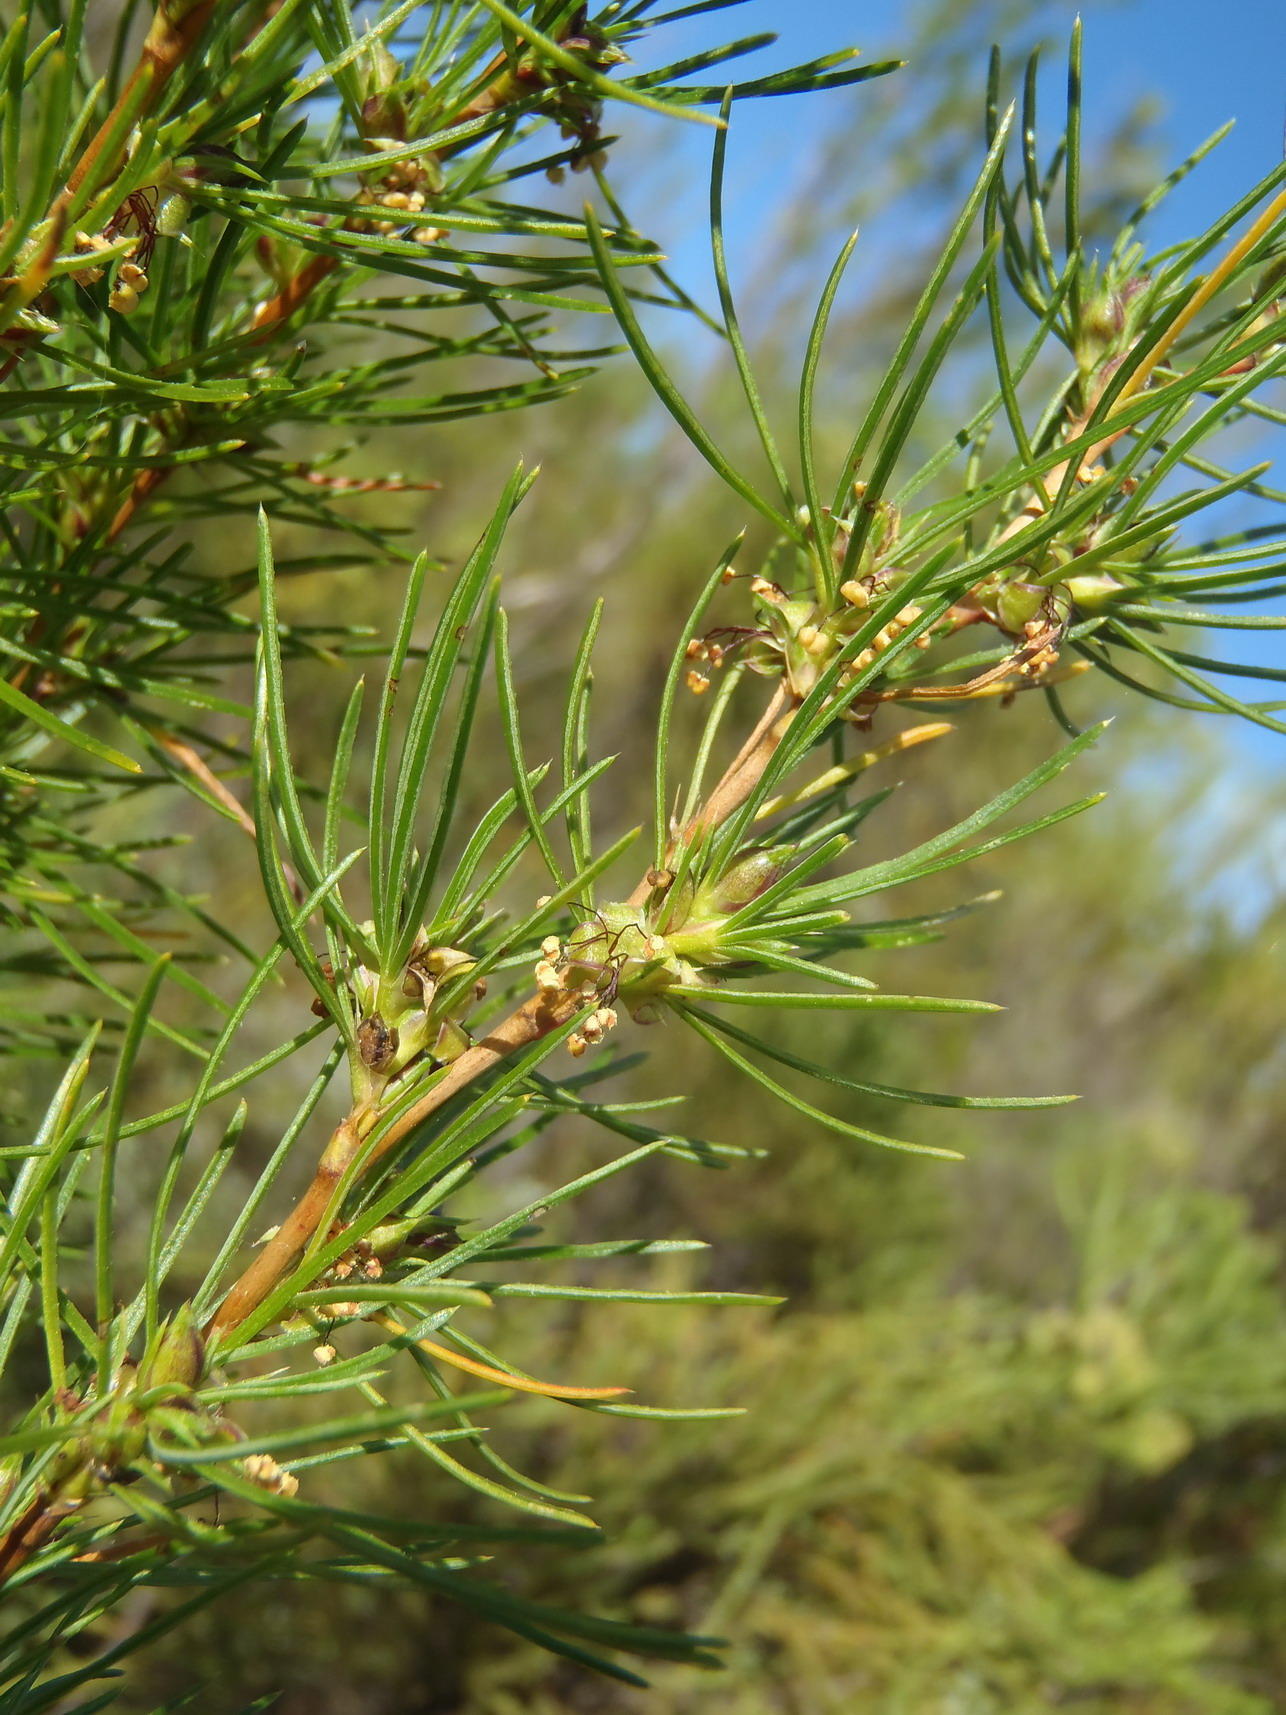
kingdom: Plantae
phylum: Tracheophyta
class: Magnoliopsida
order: Rosales
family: Rosaceae
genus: Cliffortia
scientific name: Cliffortia burchellii
